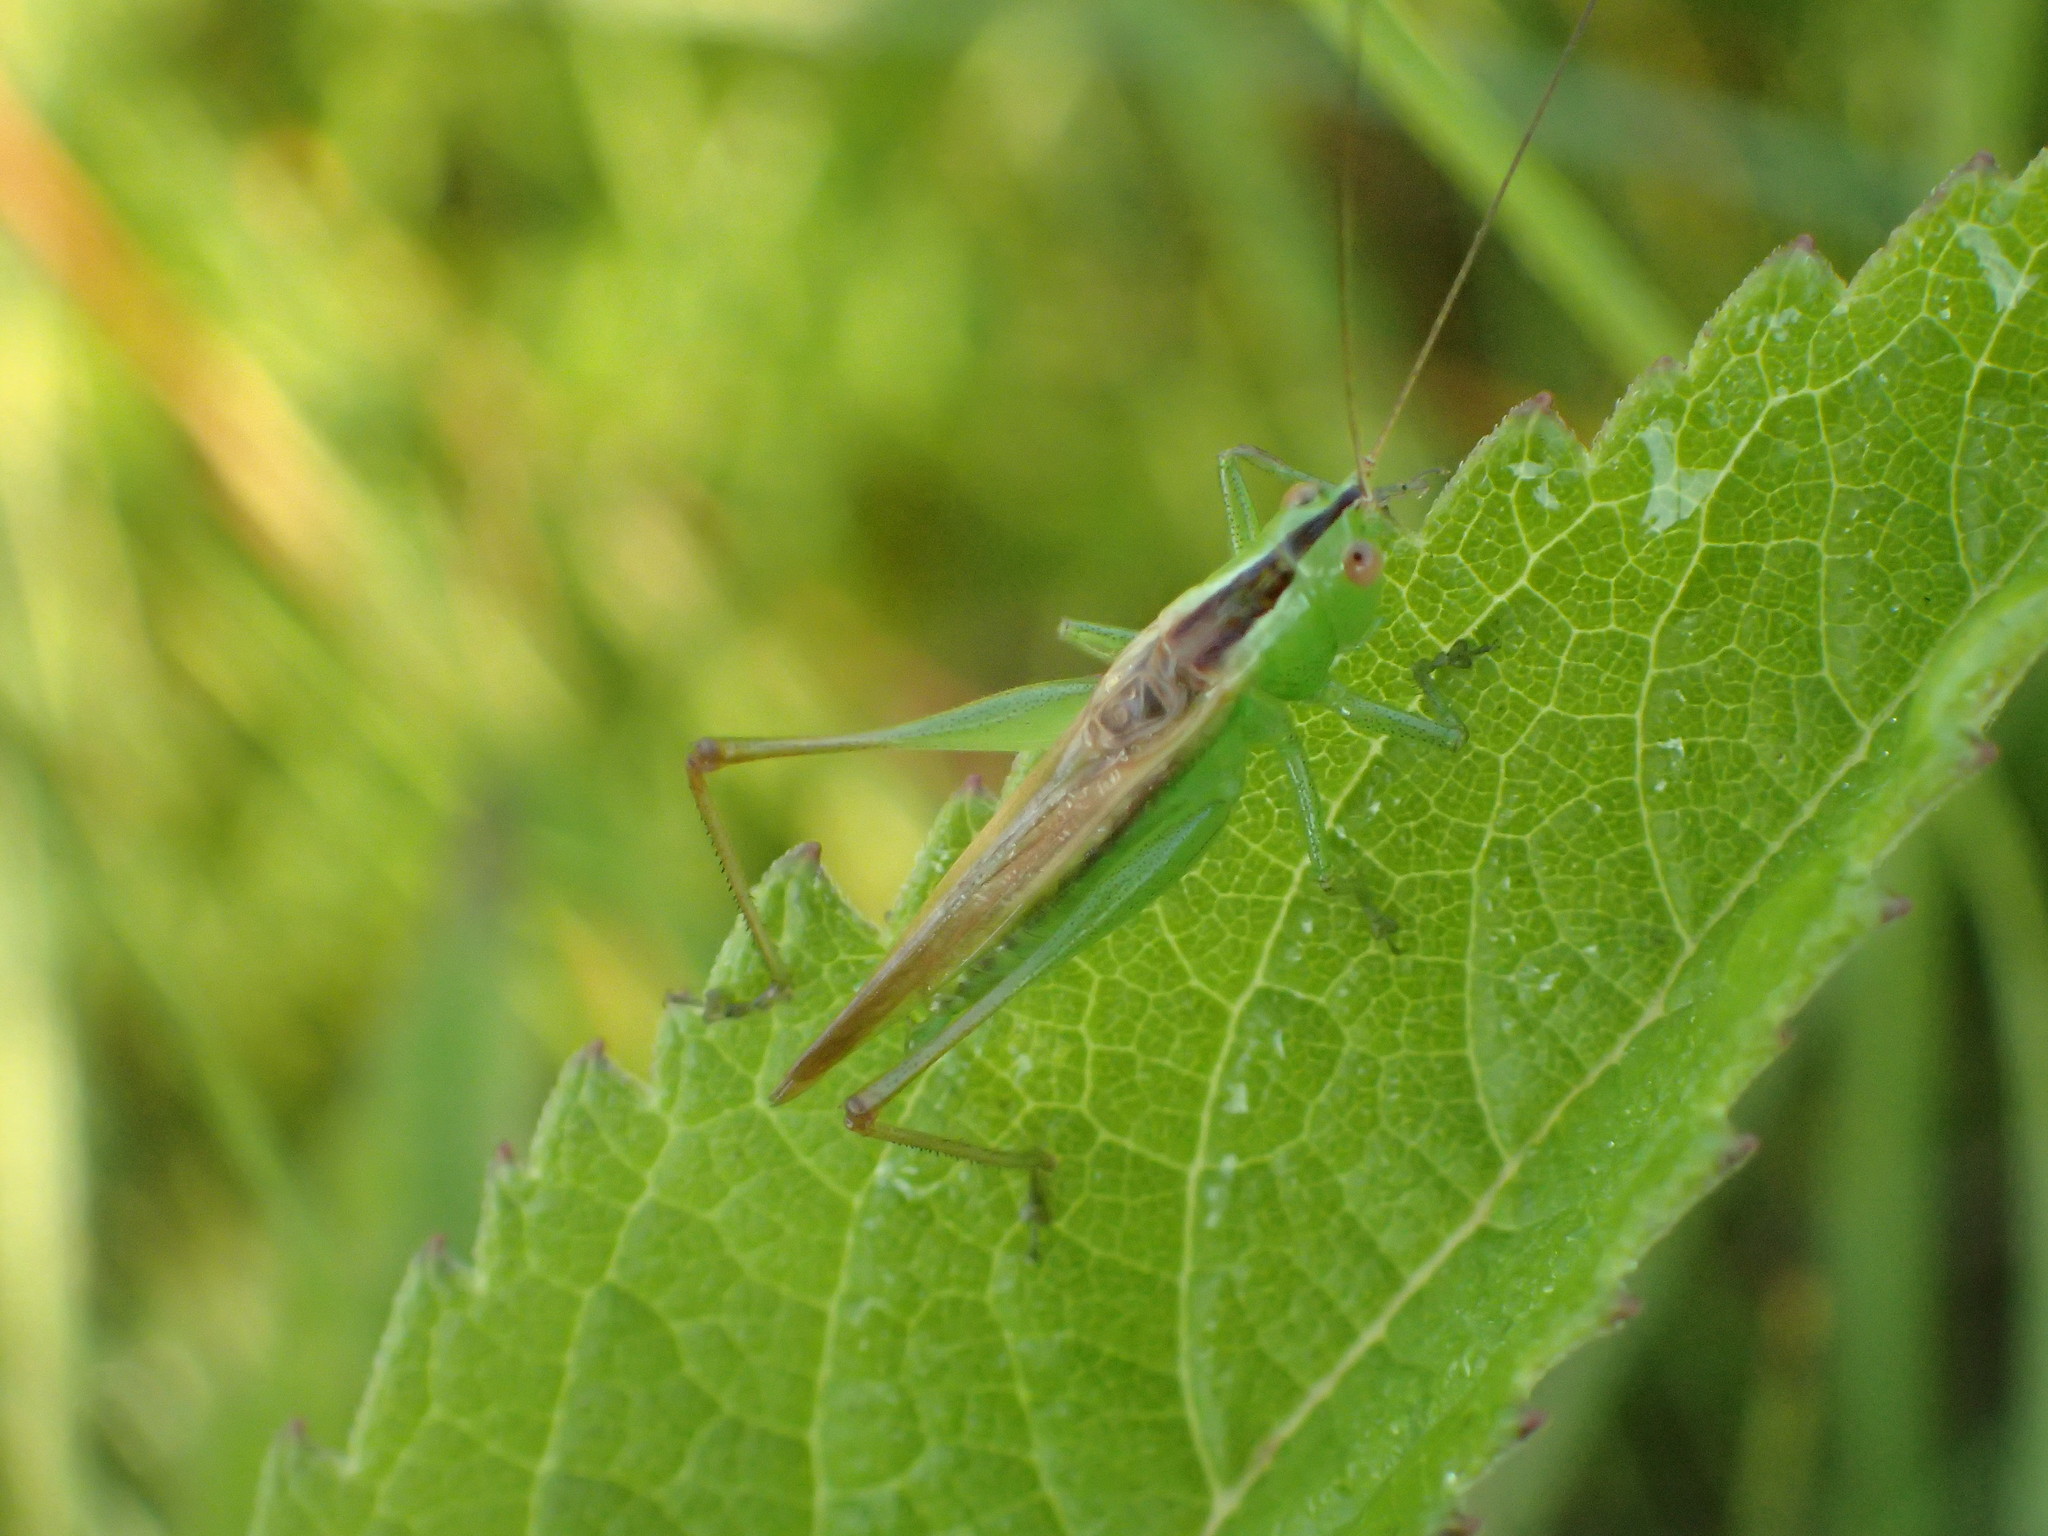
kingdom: Animalia
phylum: Arthropoda
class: Insecta
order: Orthoptera
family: Tettigoniidae
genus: Conocephalus
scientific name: Conocephalus fasciatus
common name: Slender meadow katydid
